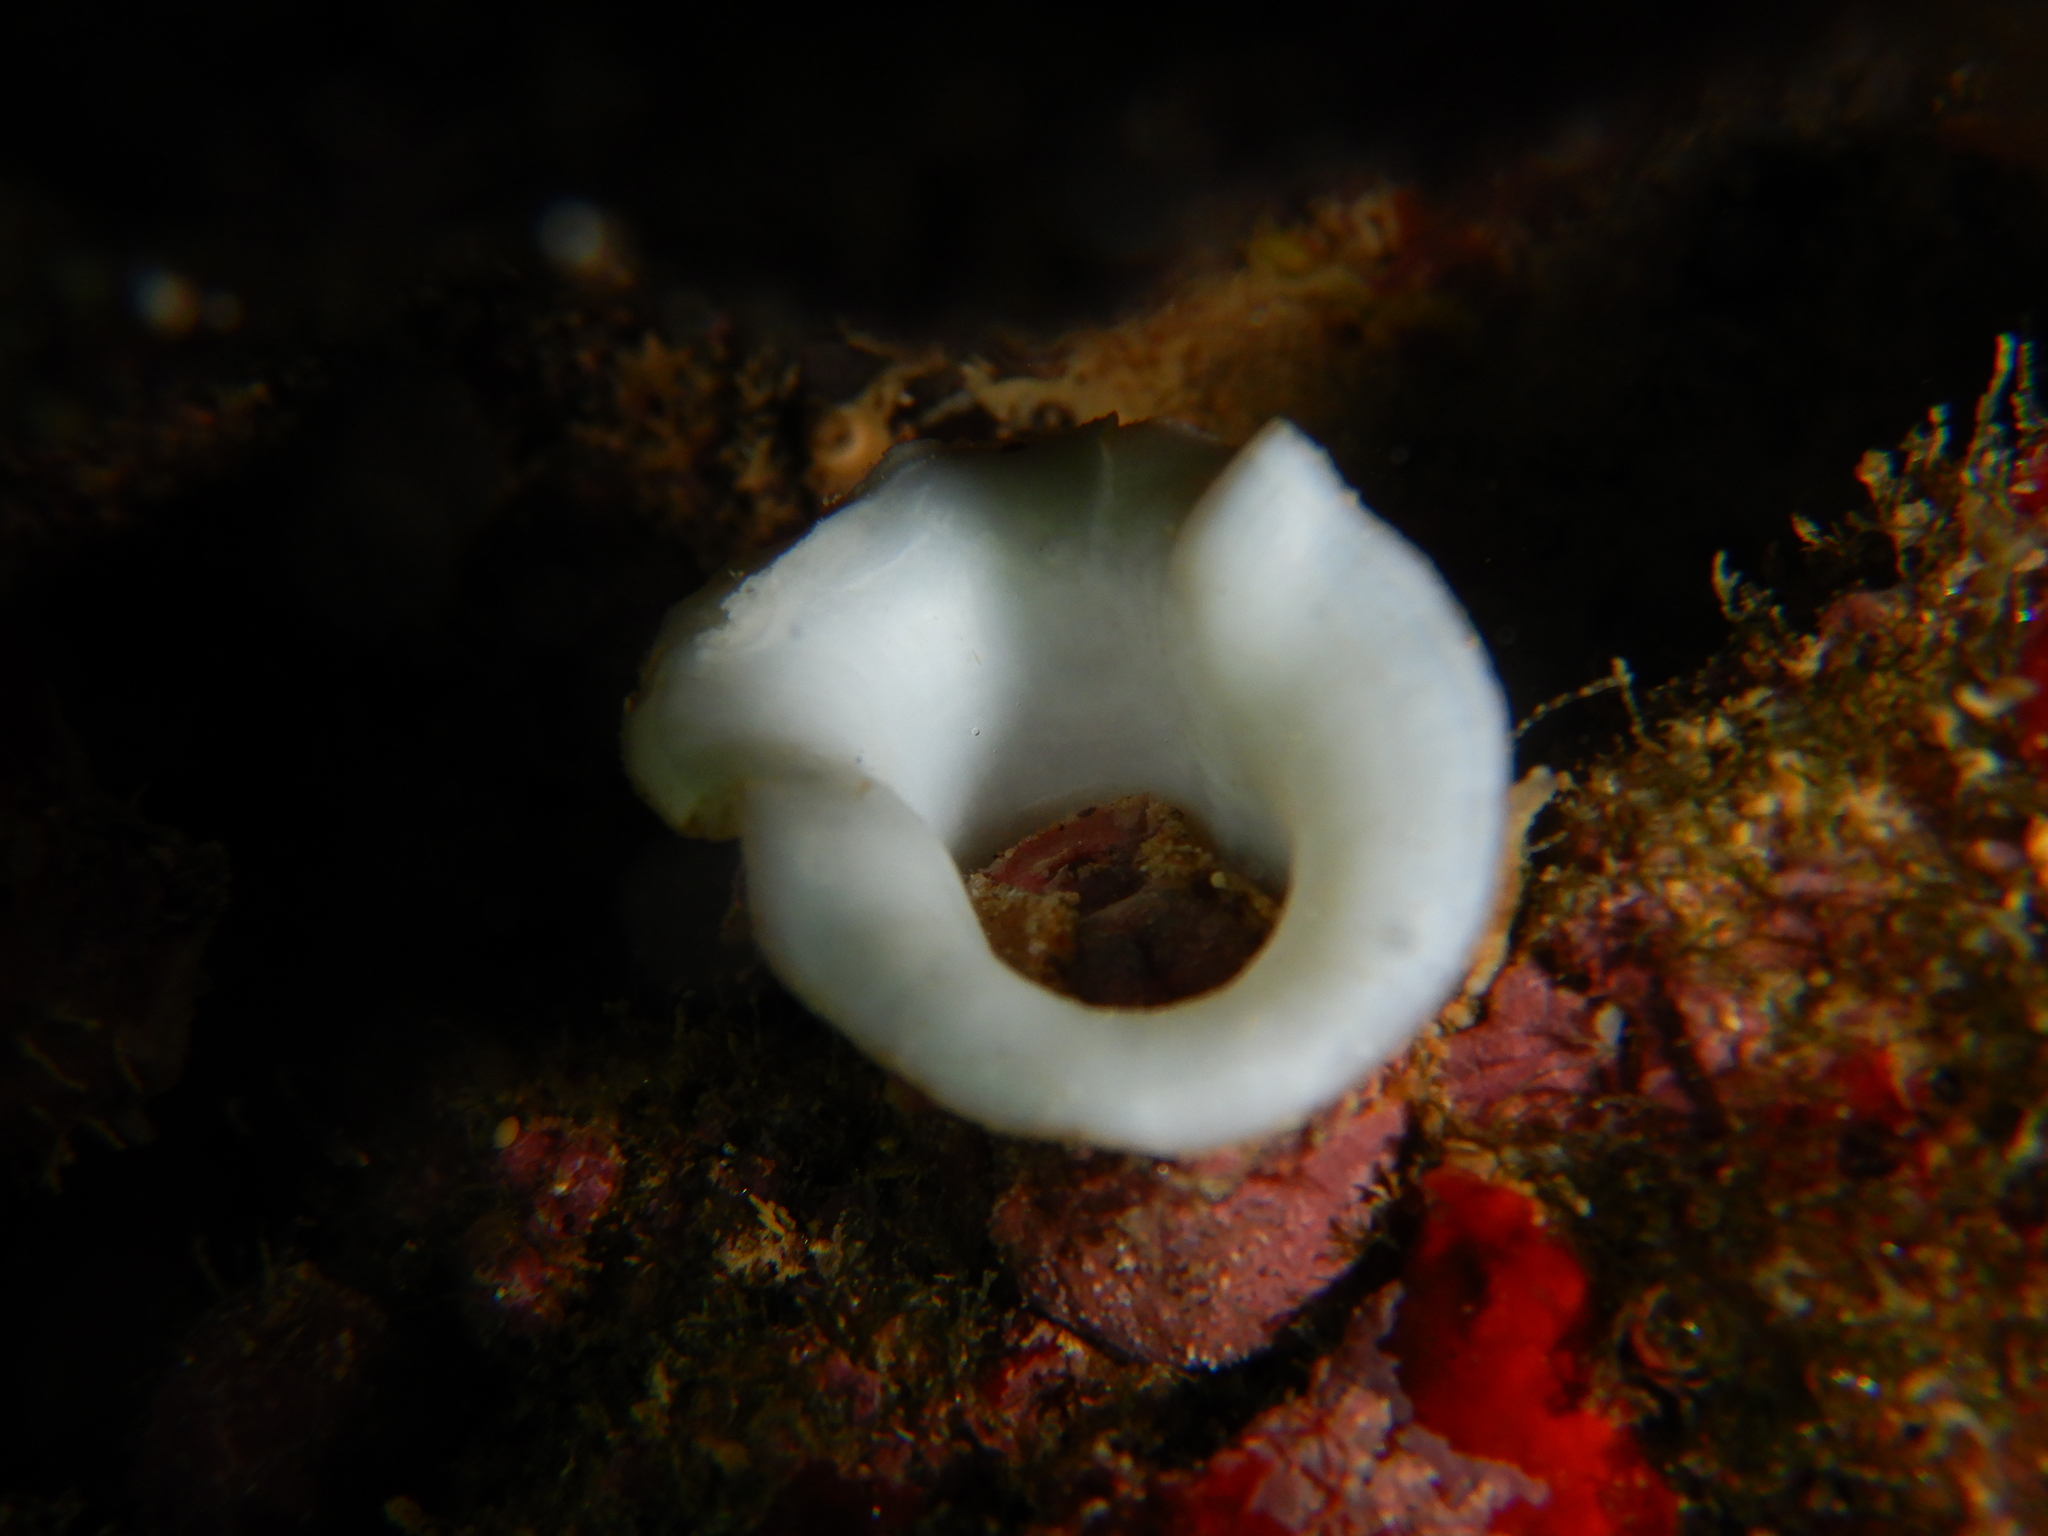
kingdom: Animalia
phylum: Mollusca
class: Bivalvia
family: Clavagellidae
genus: Bryopa
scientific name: Bryopa aperta
